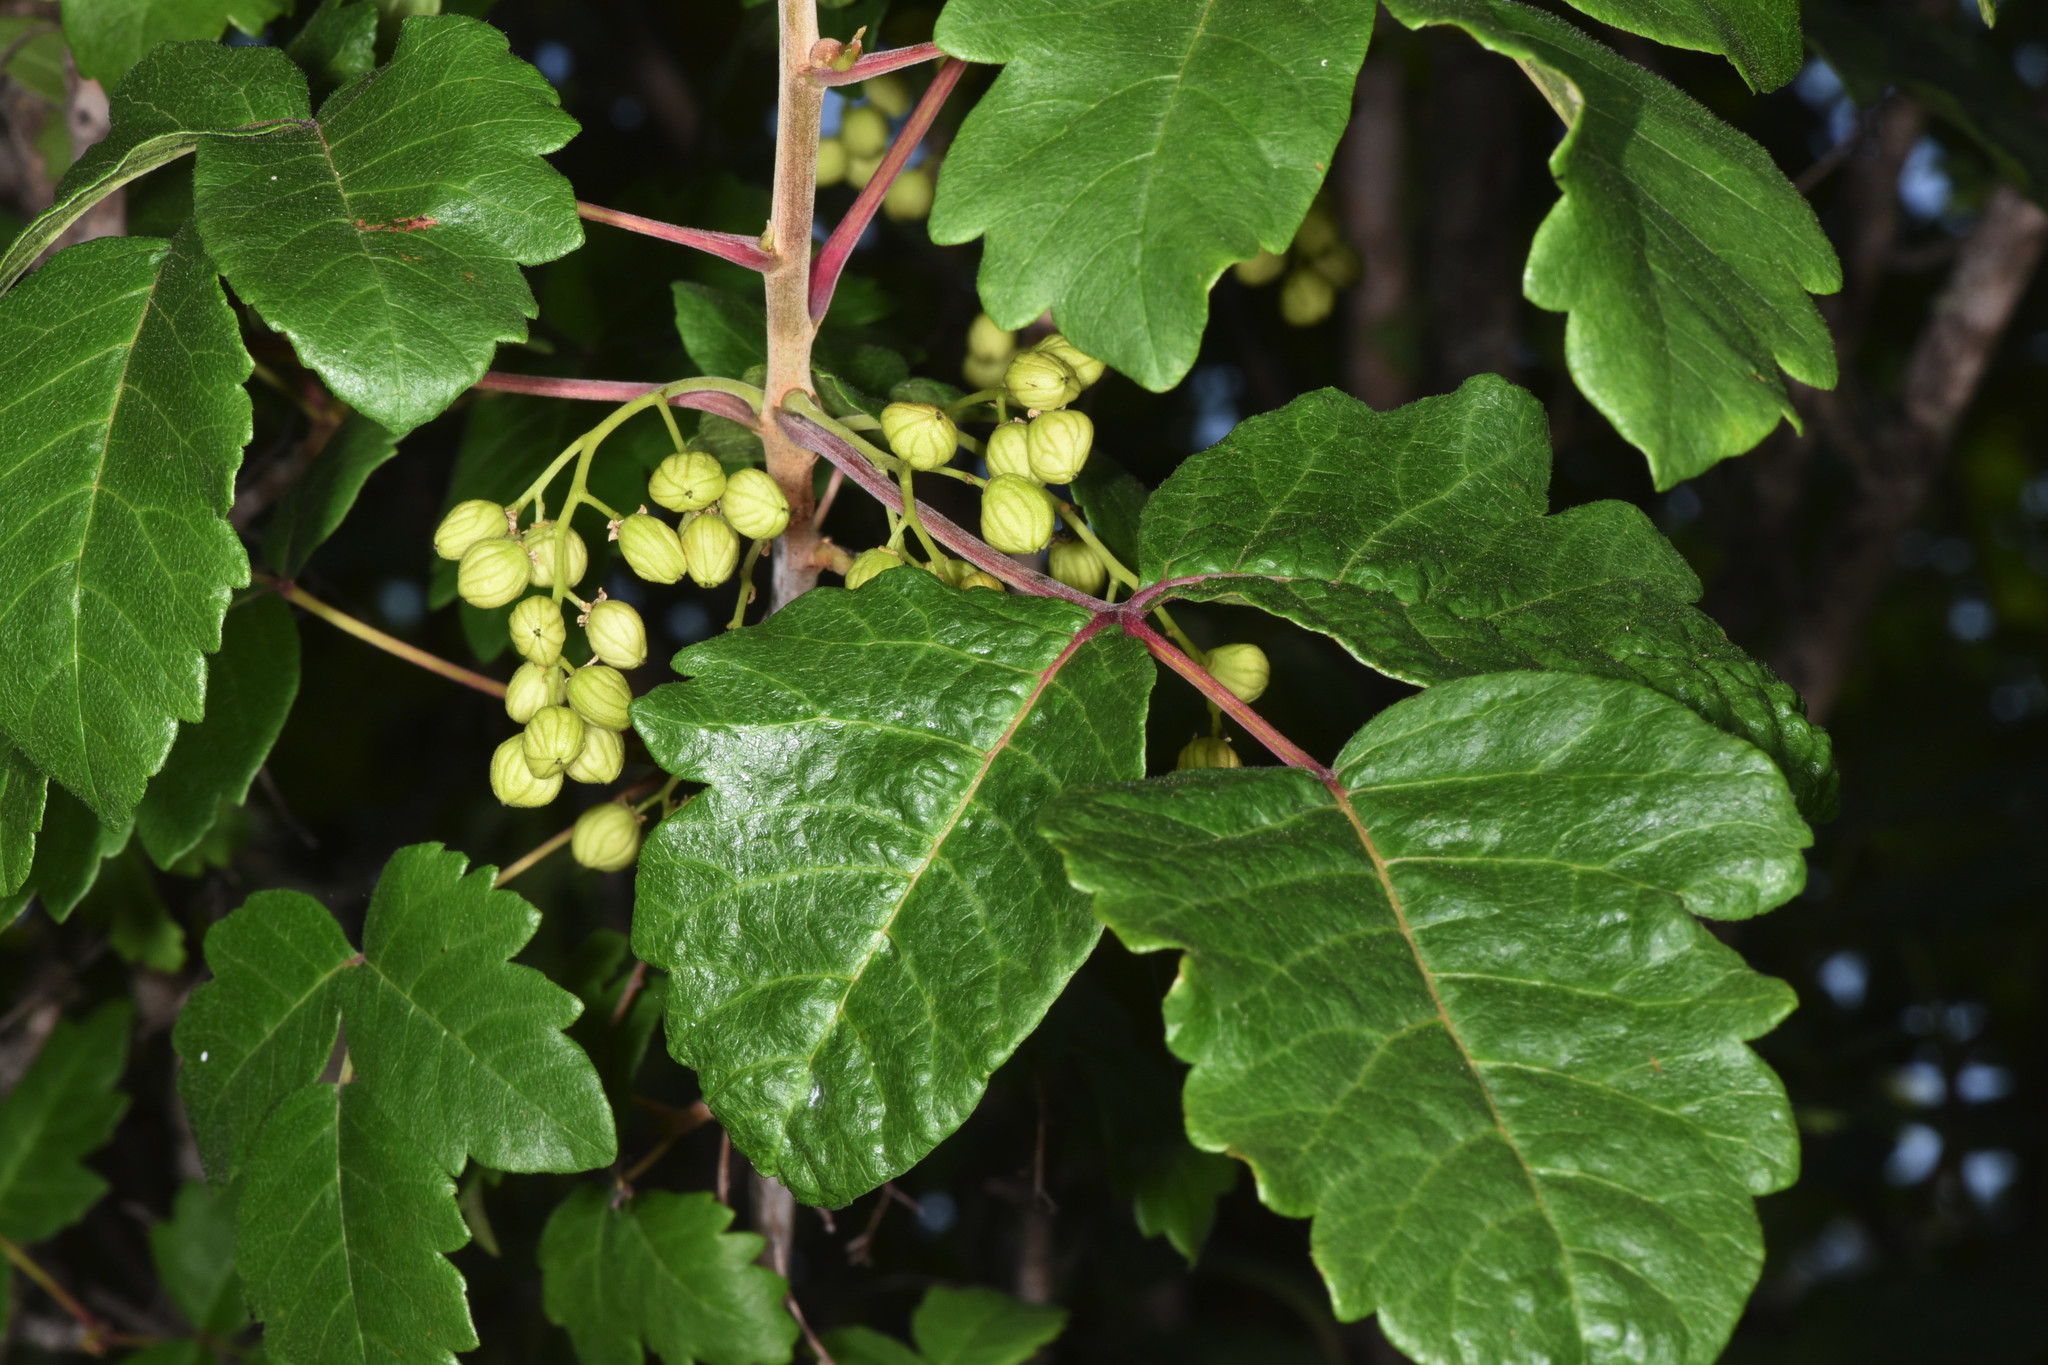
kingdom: Plantae
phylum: Tracheophyta
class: Magnoliopsida
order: Sapindales
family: Anacardiaceae
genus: Toxicodendron
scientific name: Toxicodendron diversilobum
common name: Pacific poison-oak
